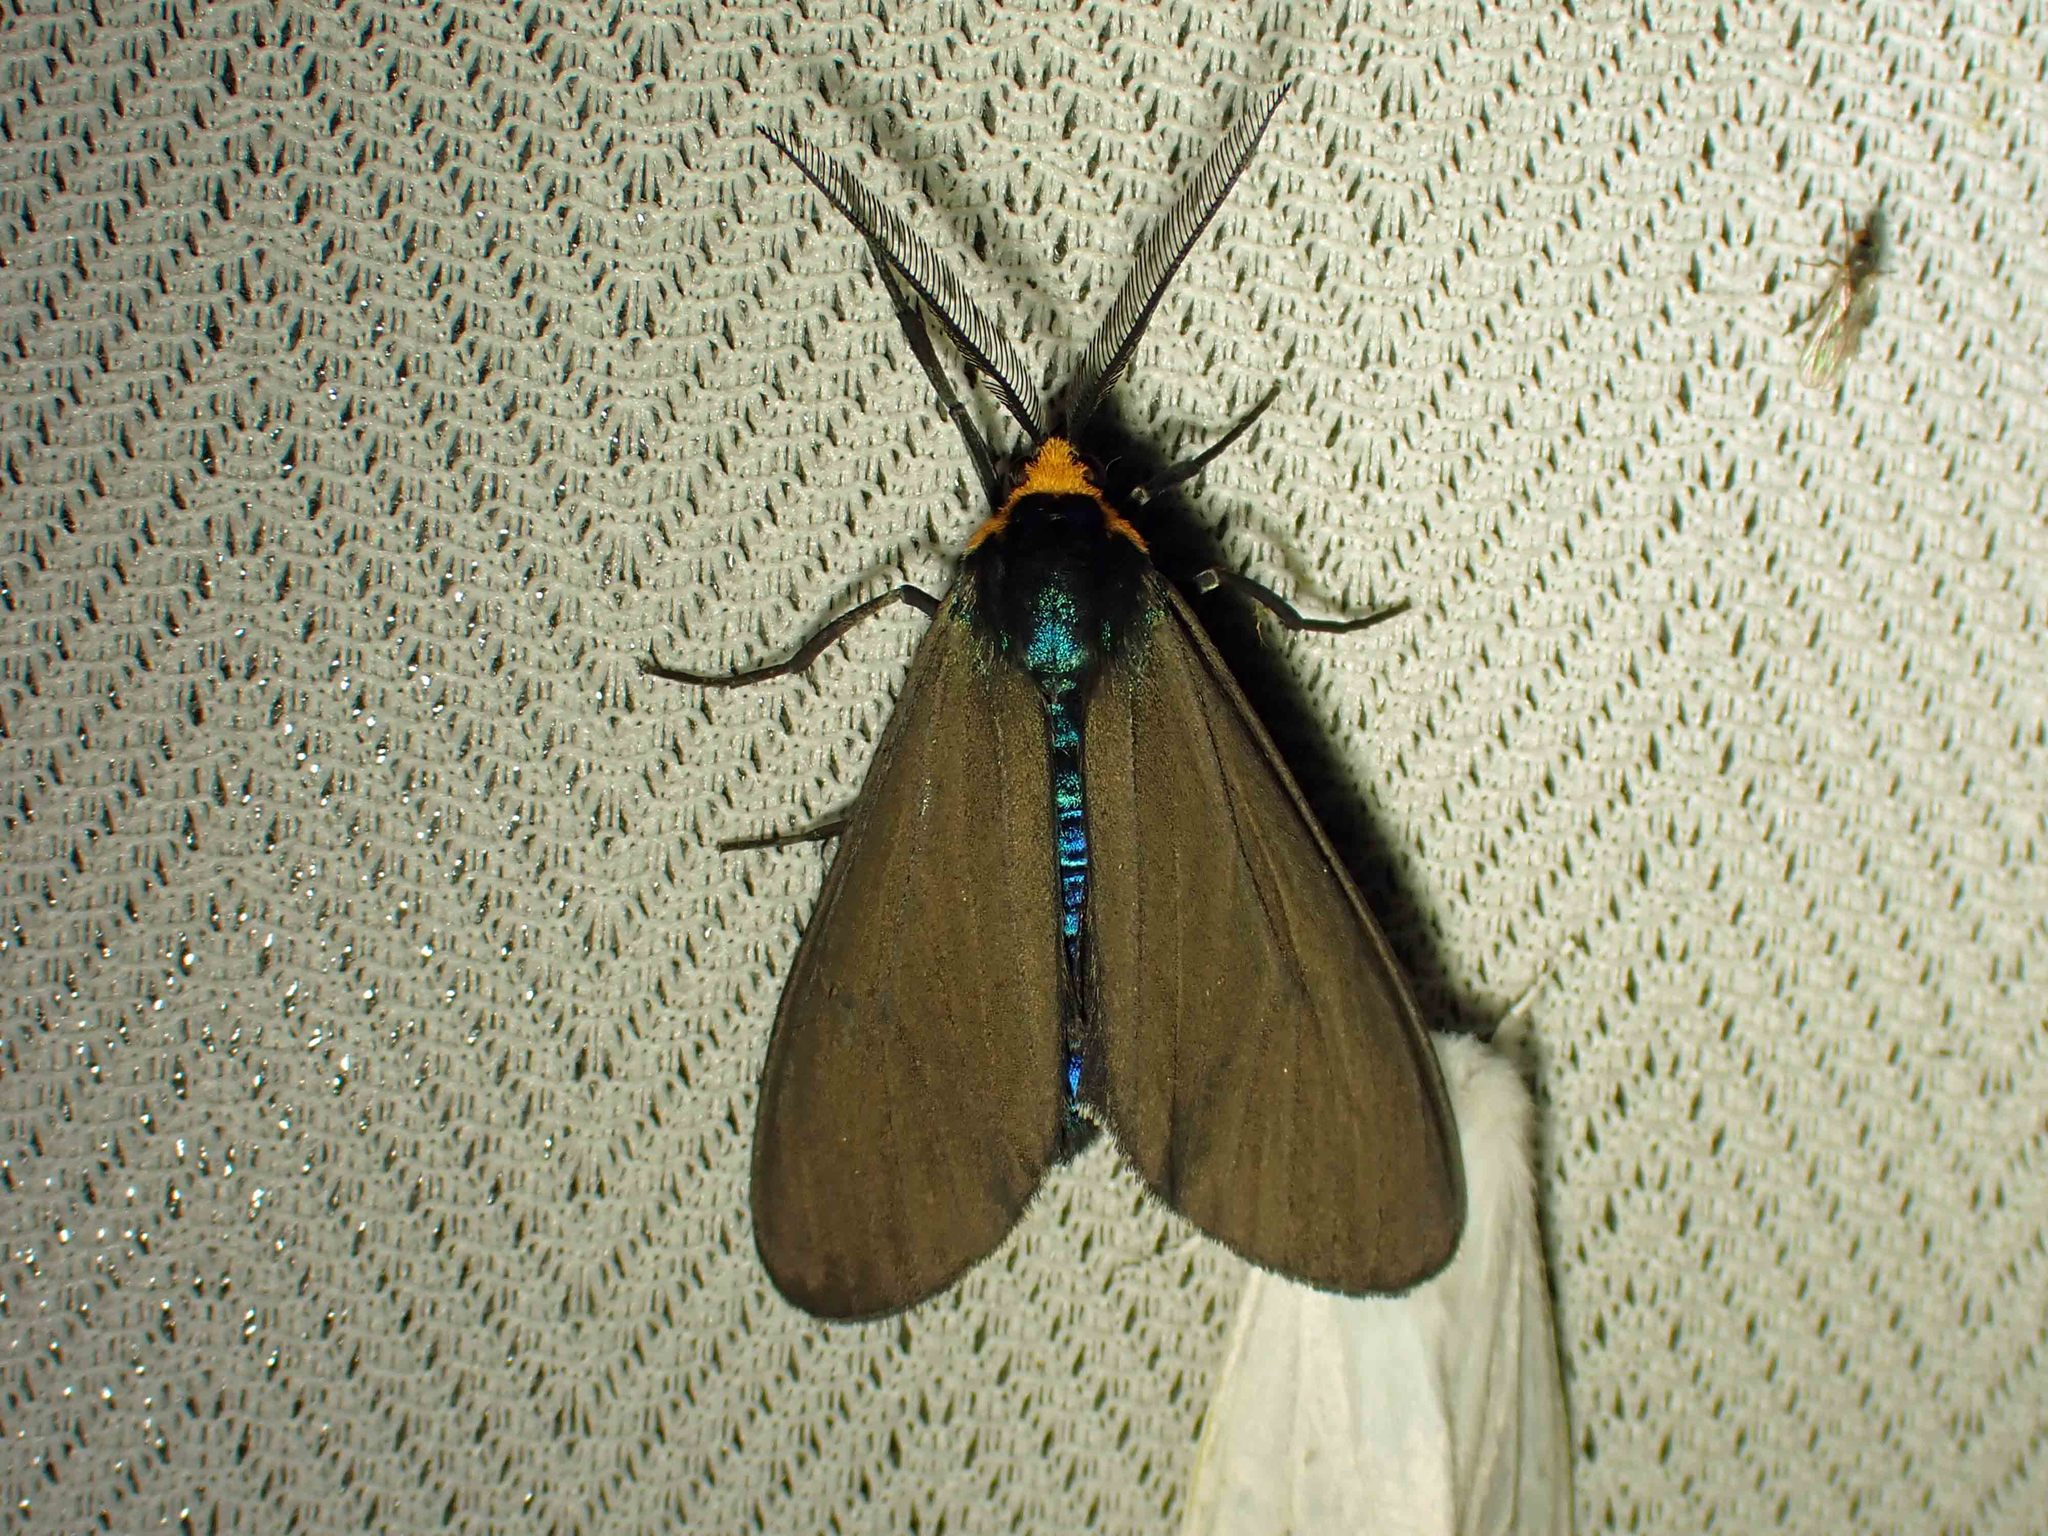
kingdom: Animalia
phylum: Arthropoda
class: Insecta
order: Lepidoptera
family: Erebidae
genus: Ctenucha
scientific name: Ctenucha virginica
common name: Virginia ctenucha moth
